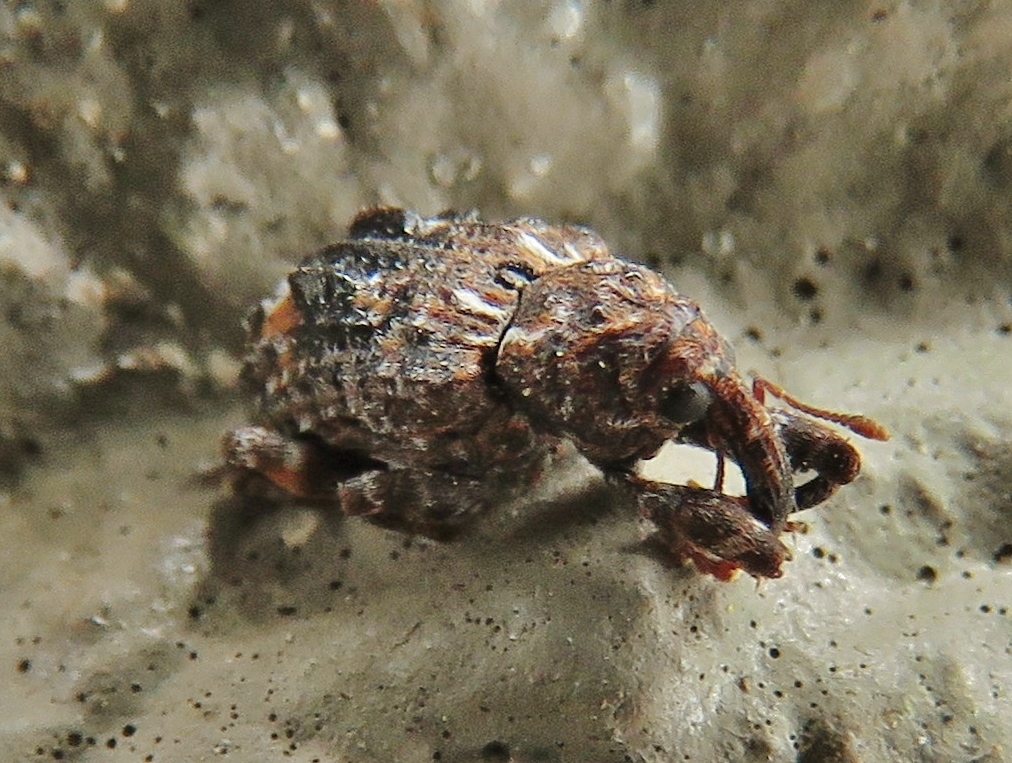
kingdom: Animalia
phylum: Arthropoda
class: Insecta
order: Coleoptera
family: Curculionidae
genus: Conotrachelus
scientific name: Conotrachelus nenuphar
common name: Plum curculio
